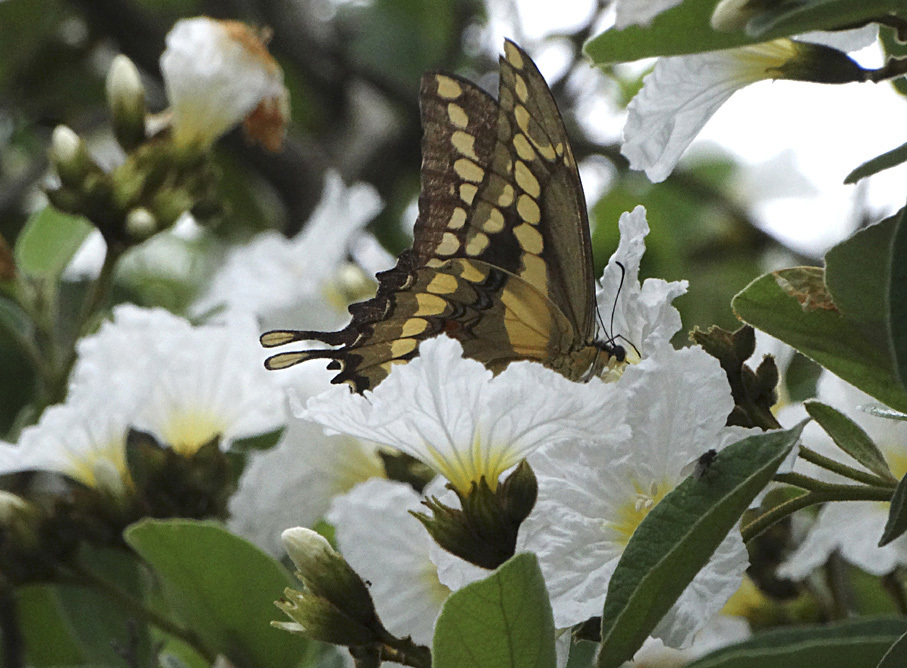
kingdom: Animalia
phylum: Arthropoda
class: Insecta
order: Lepidoptera
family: Papilionidae
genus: Papilio
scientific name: Papilio rumiko
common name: Western giant swallowtail
